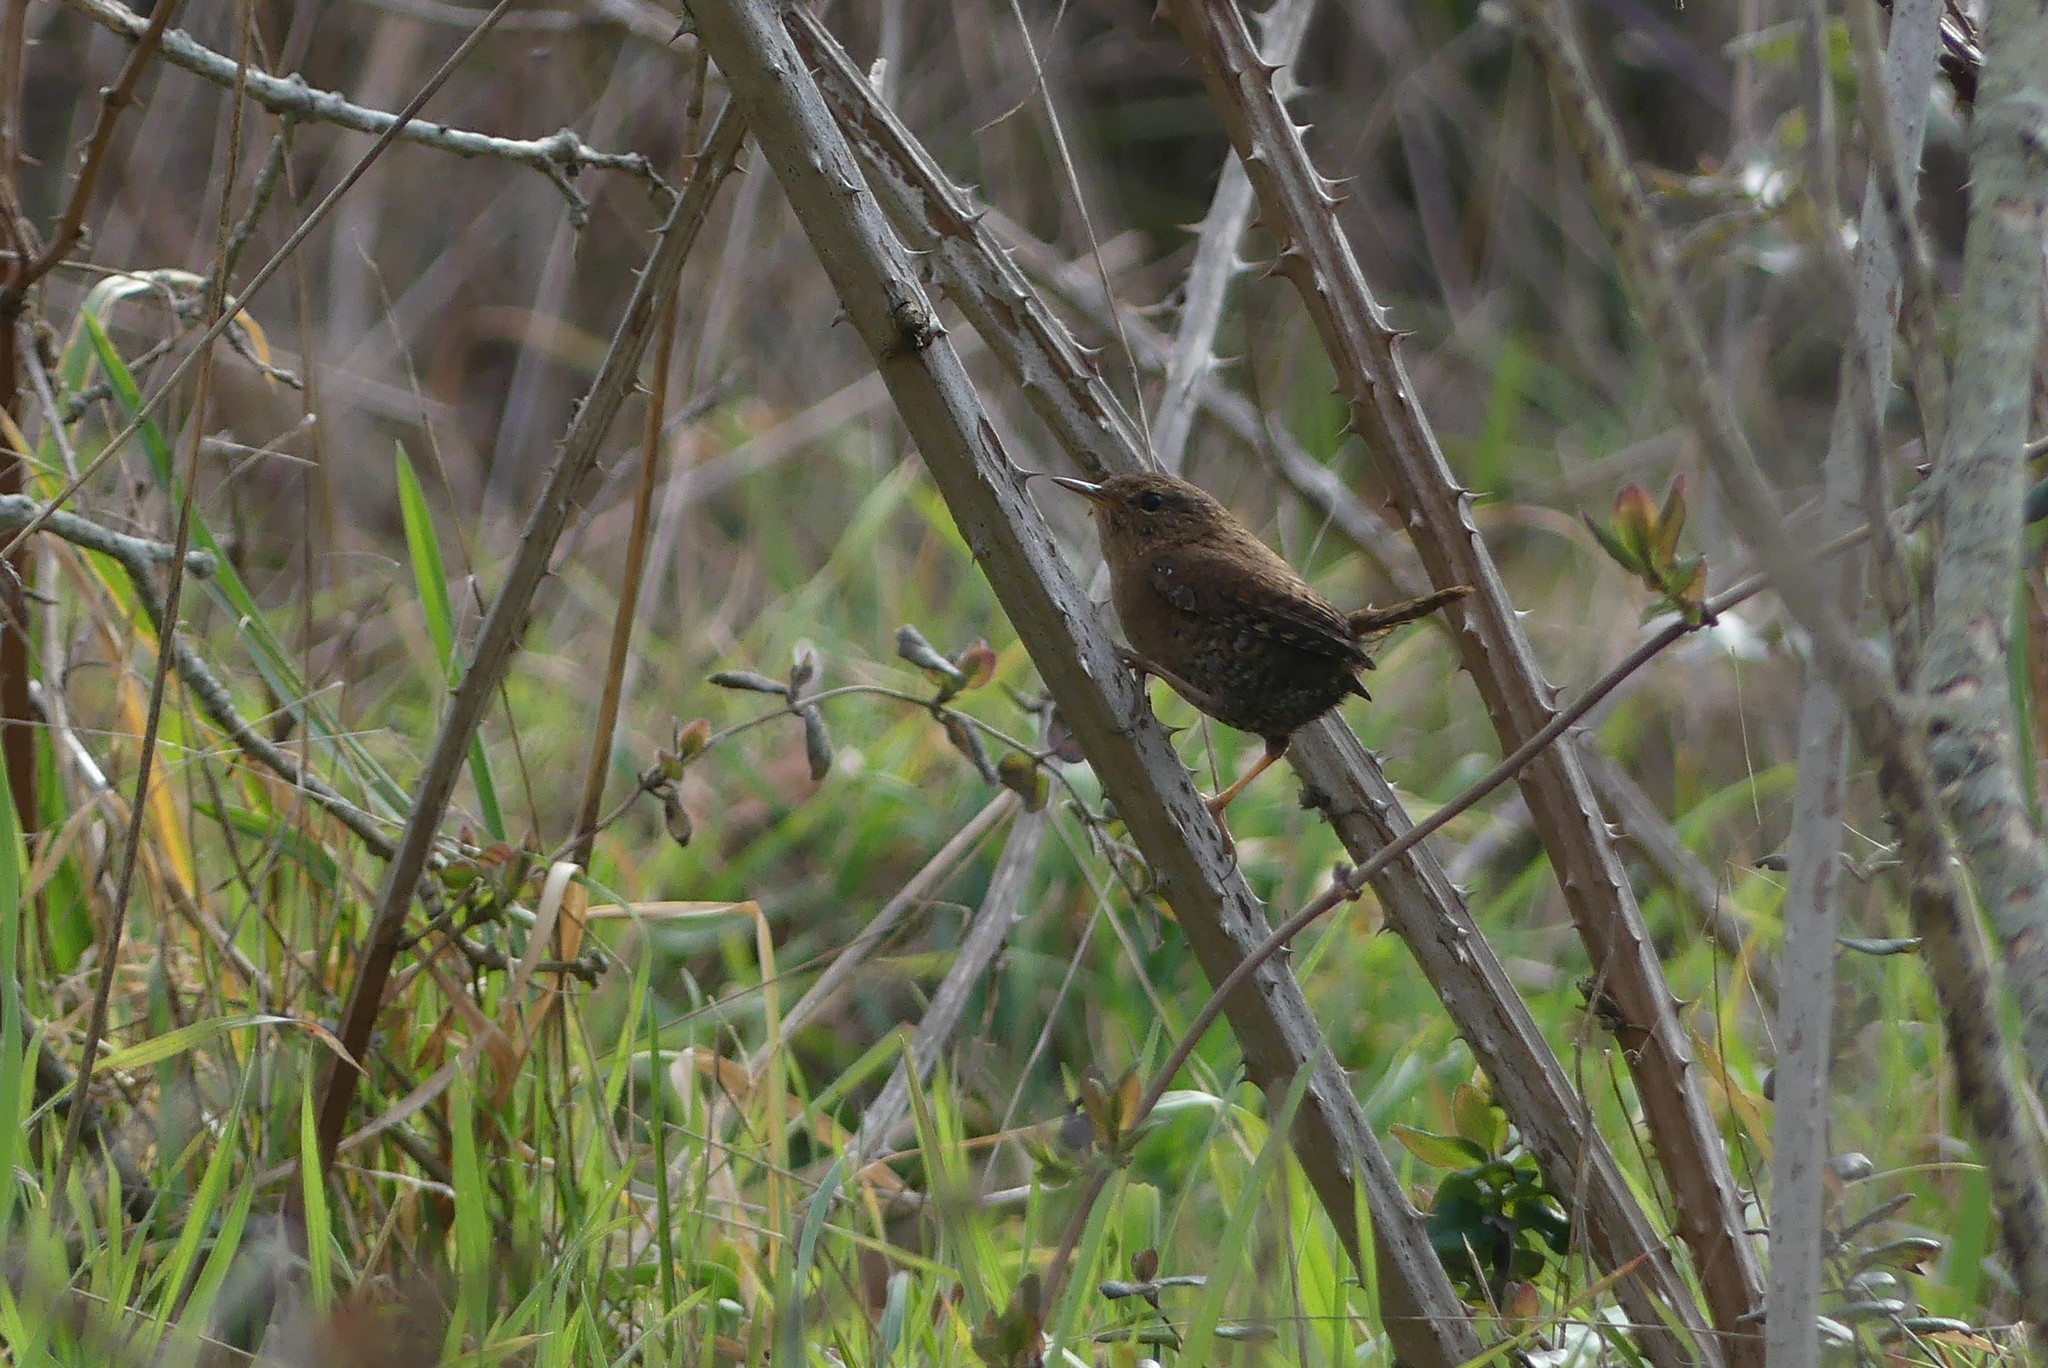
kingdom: Animalia
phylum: Chordata
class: Aves
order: Passeriformes
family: Troglodytidae
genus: Troglodytes
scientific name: Troglodytes pacificus
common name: Pacific wren
